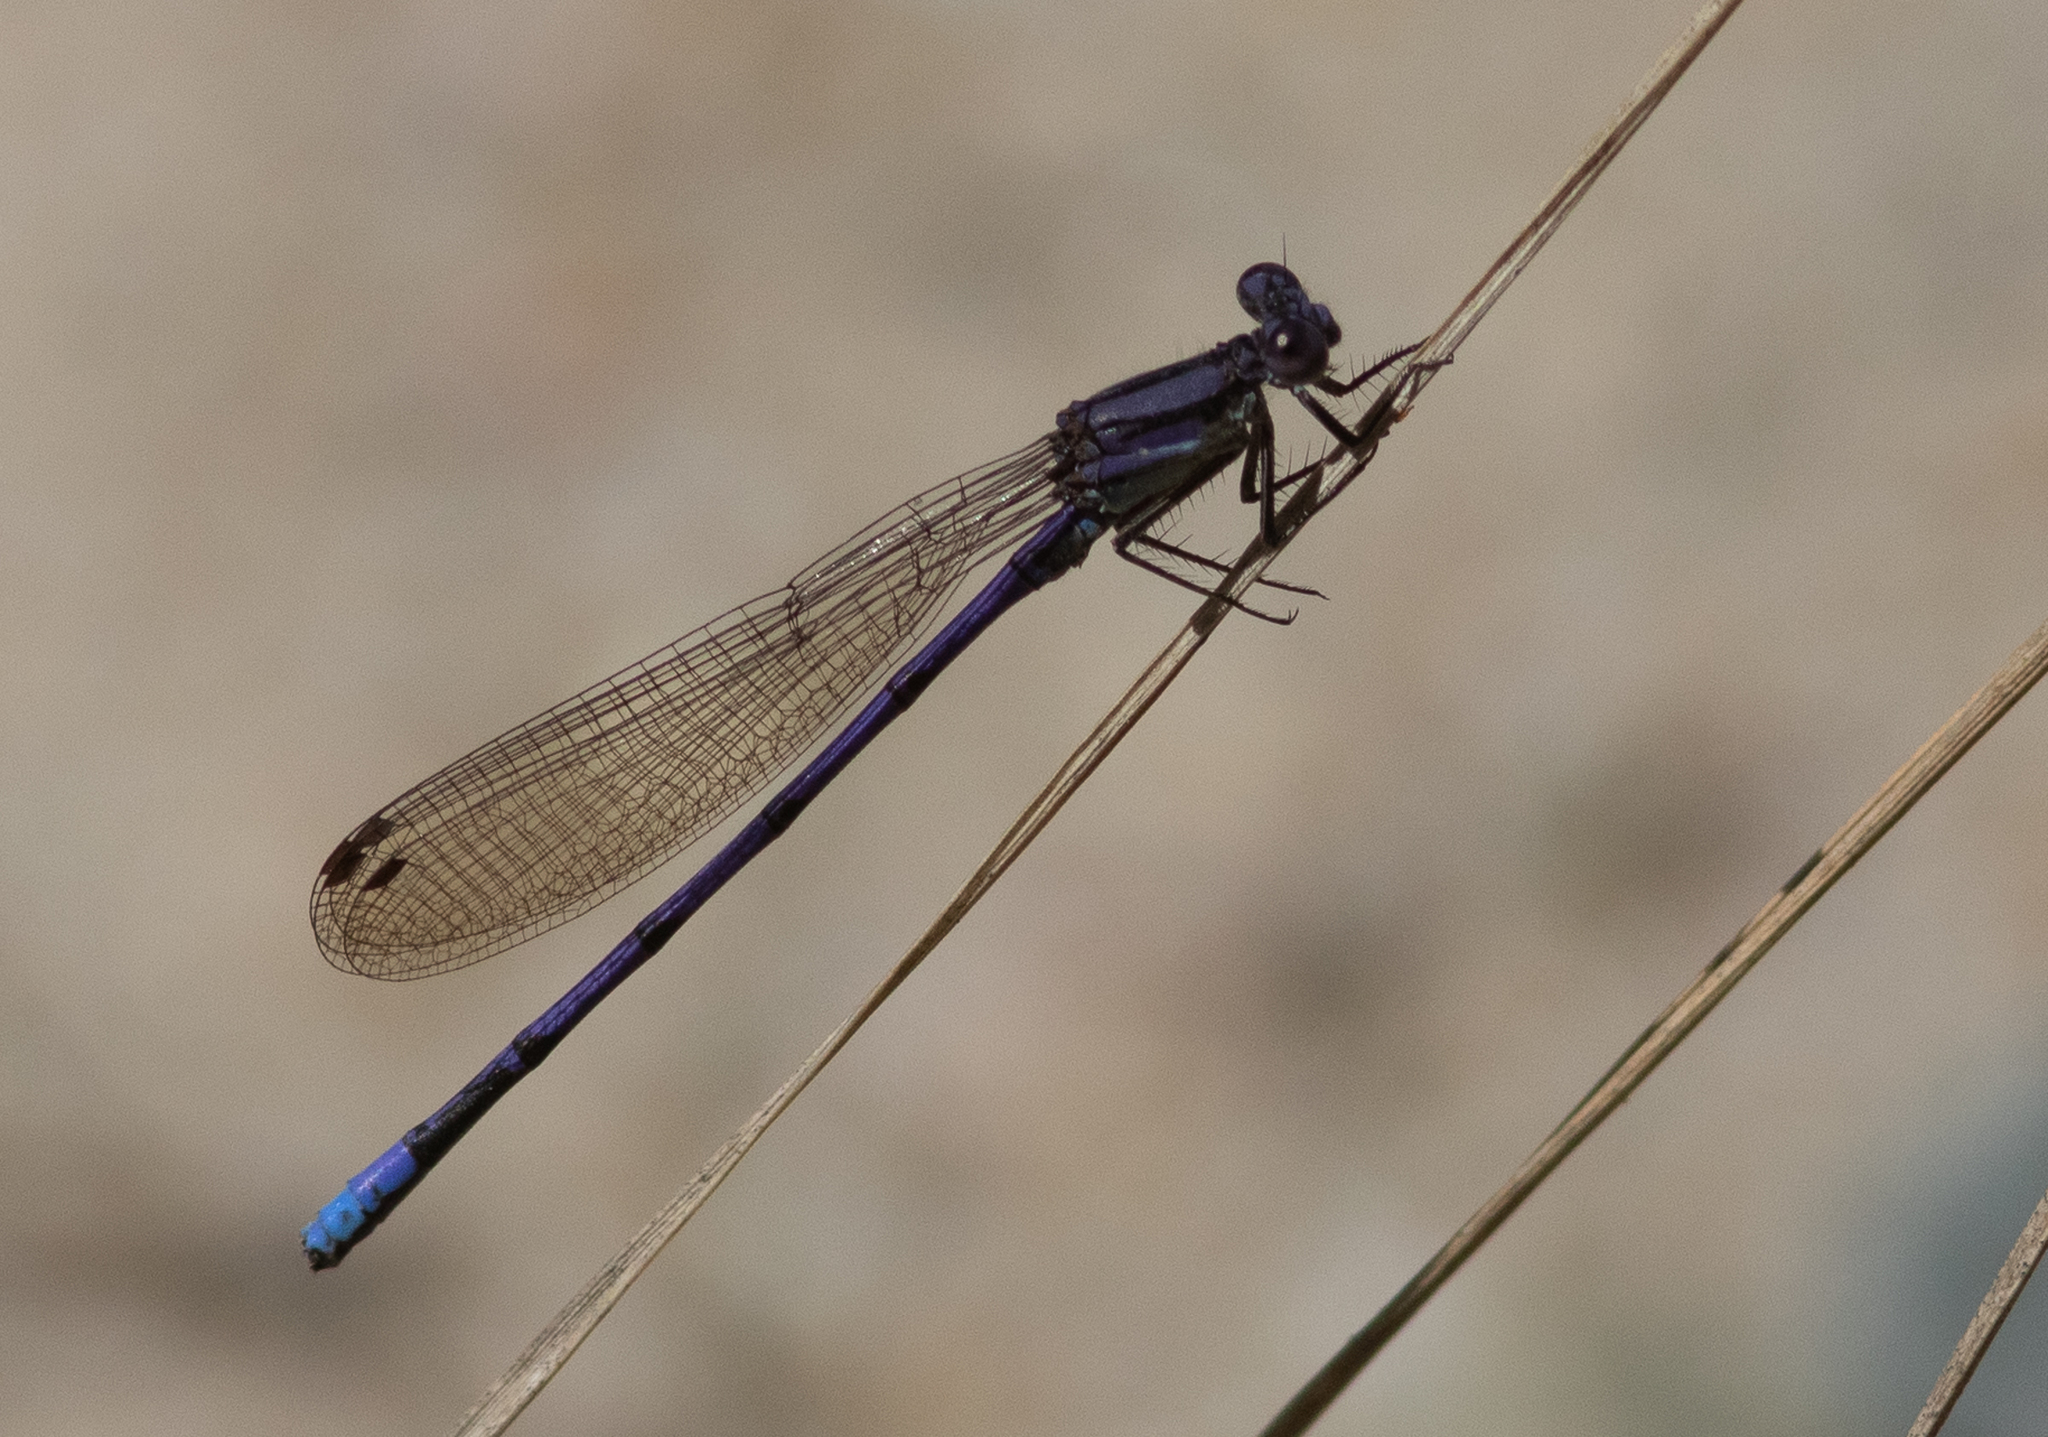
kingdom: Animalia
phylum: Arthropoda
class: Insecta
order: Odonata
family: Coenagrionidae
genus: Argia
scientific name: Argia fumipennis
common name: Variable dancer
